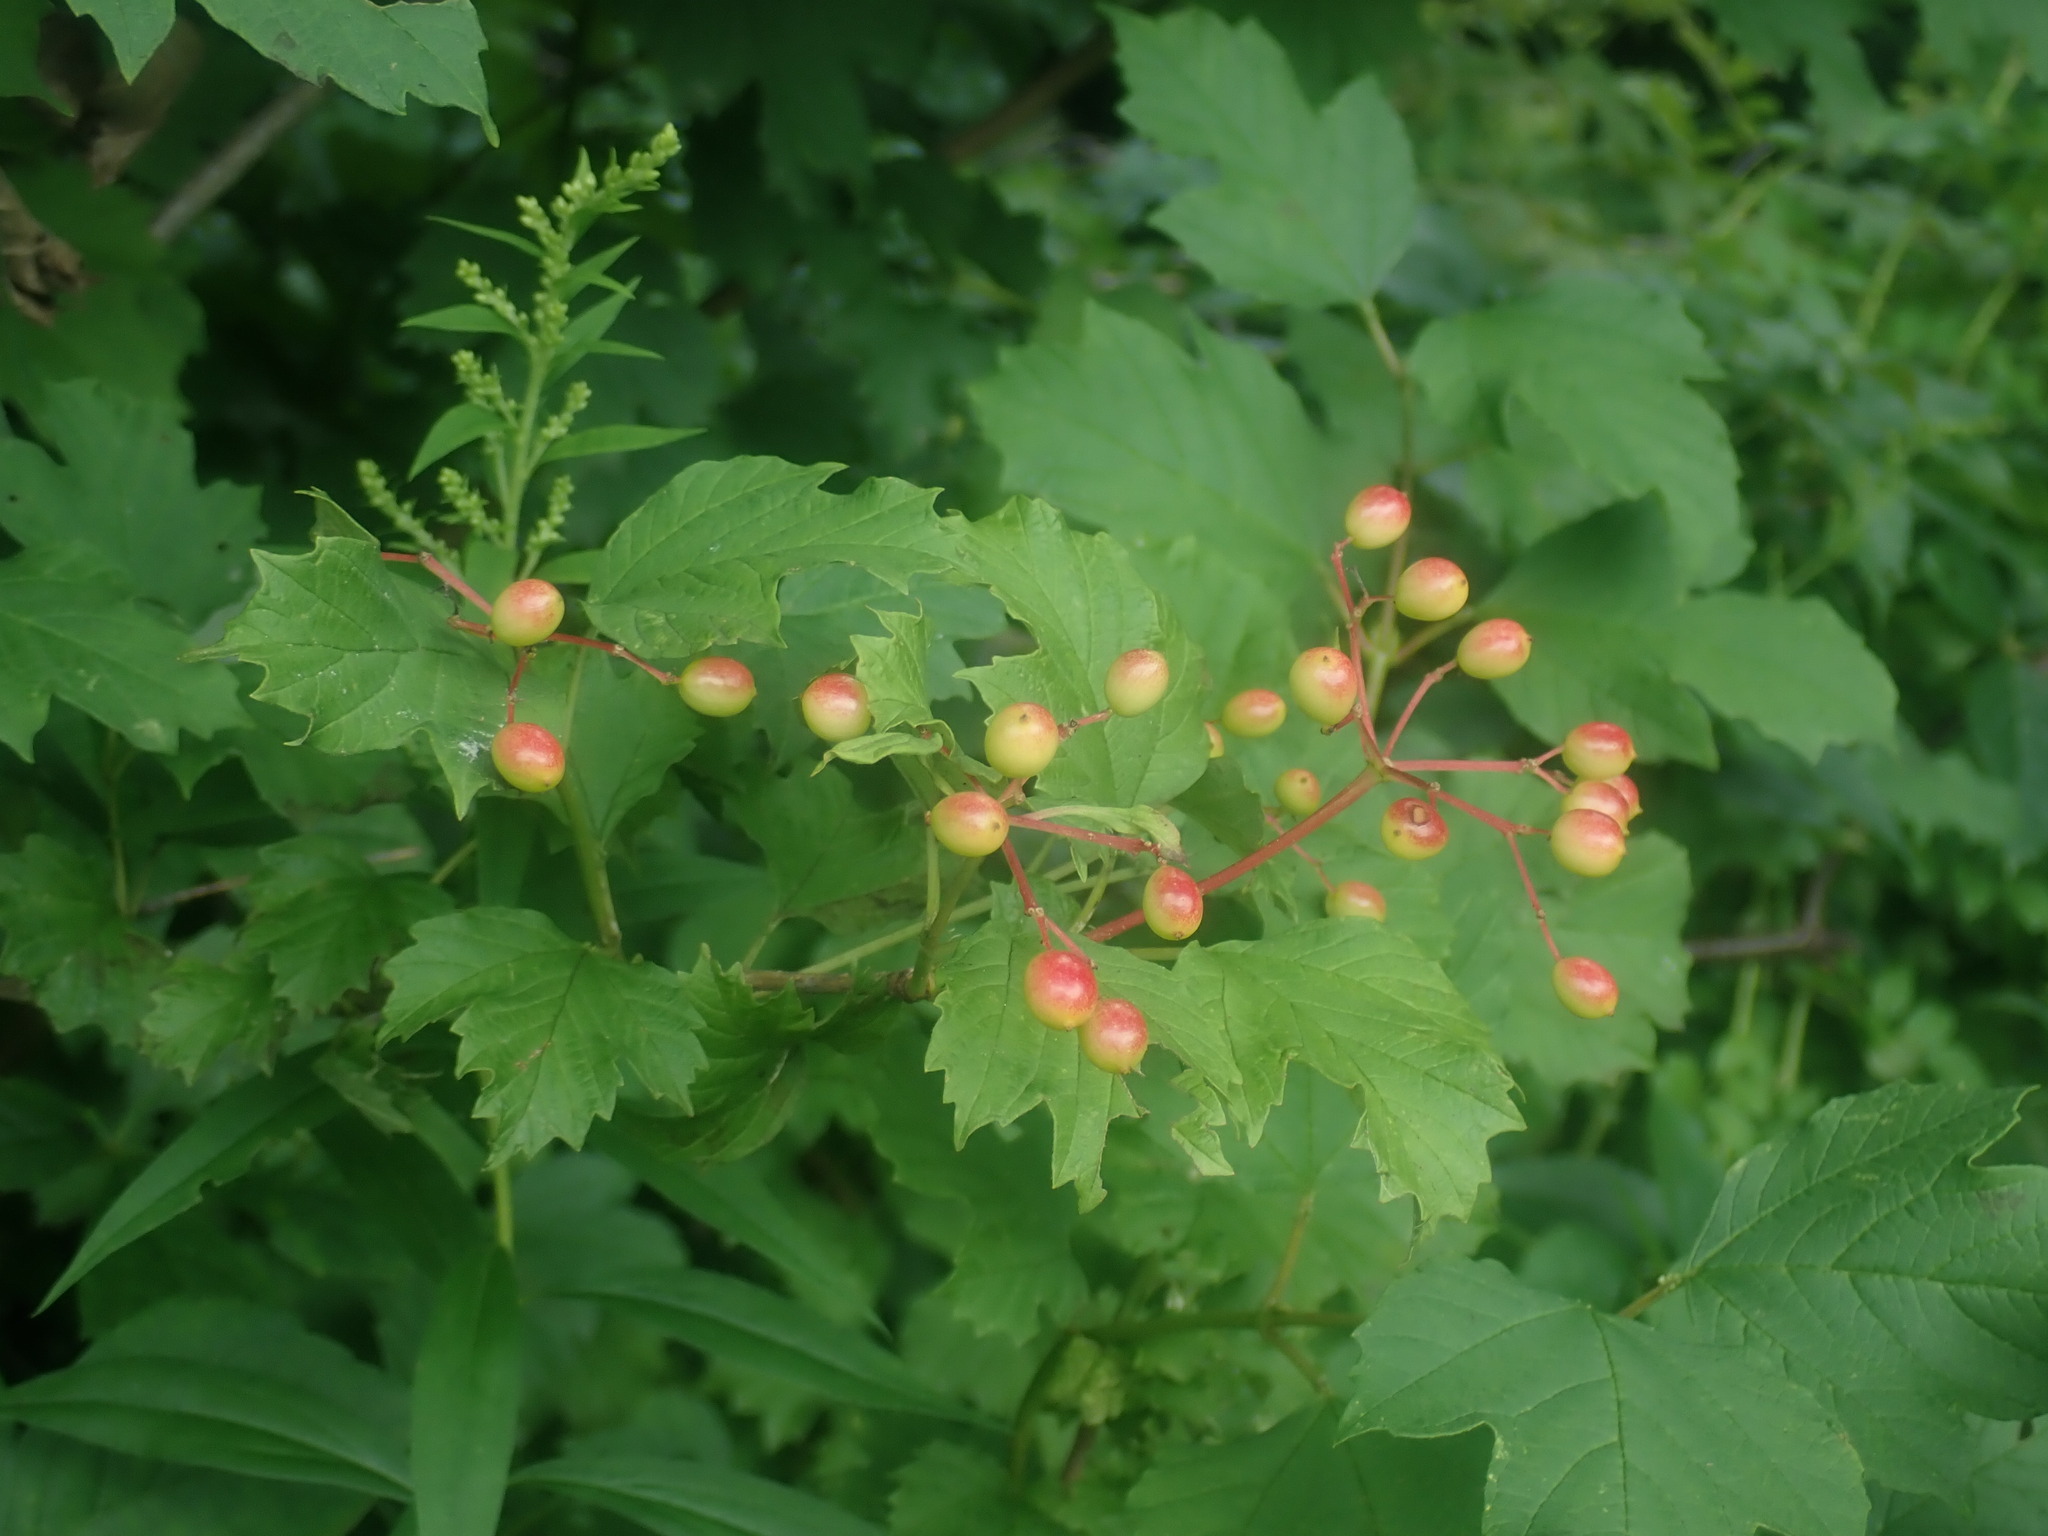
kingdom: Plantae
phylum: Tracheophyta
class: Magnoliopsida
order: Dipsacales
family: Viburnaceae
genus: Viburnum
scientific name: Viburnum opulus
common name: Guelder-rose
